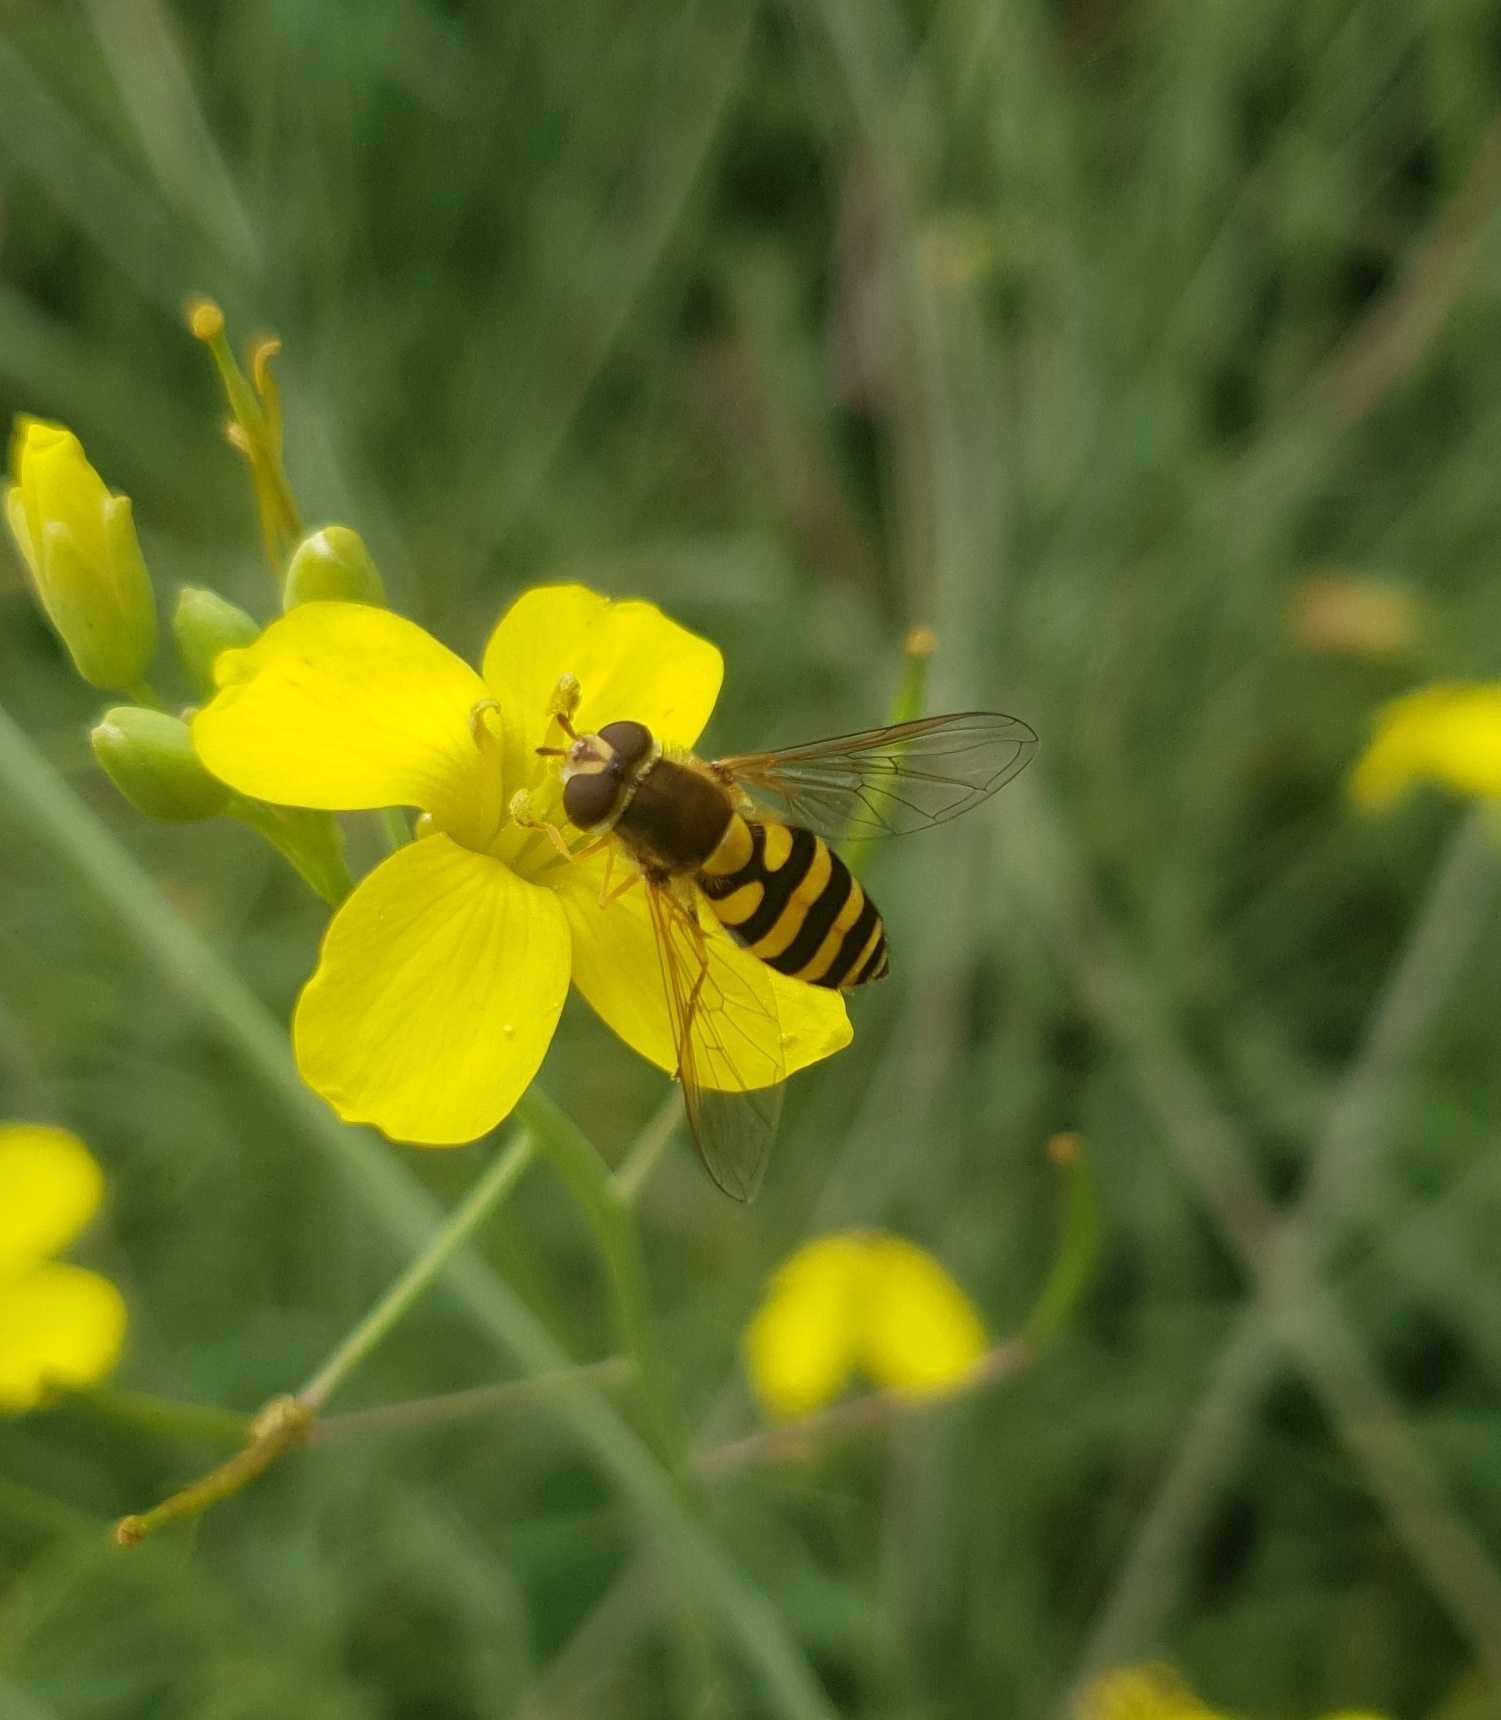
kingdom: Animalia
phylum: Arthropoda
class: Insecta
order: Diptera
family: Syrphidae
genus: Syrphus
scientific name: Syrphus
